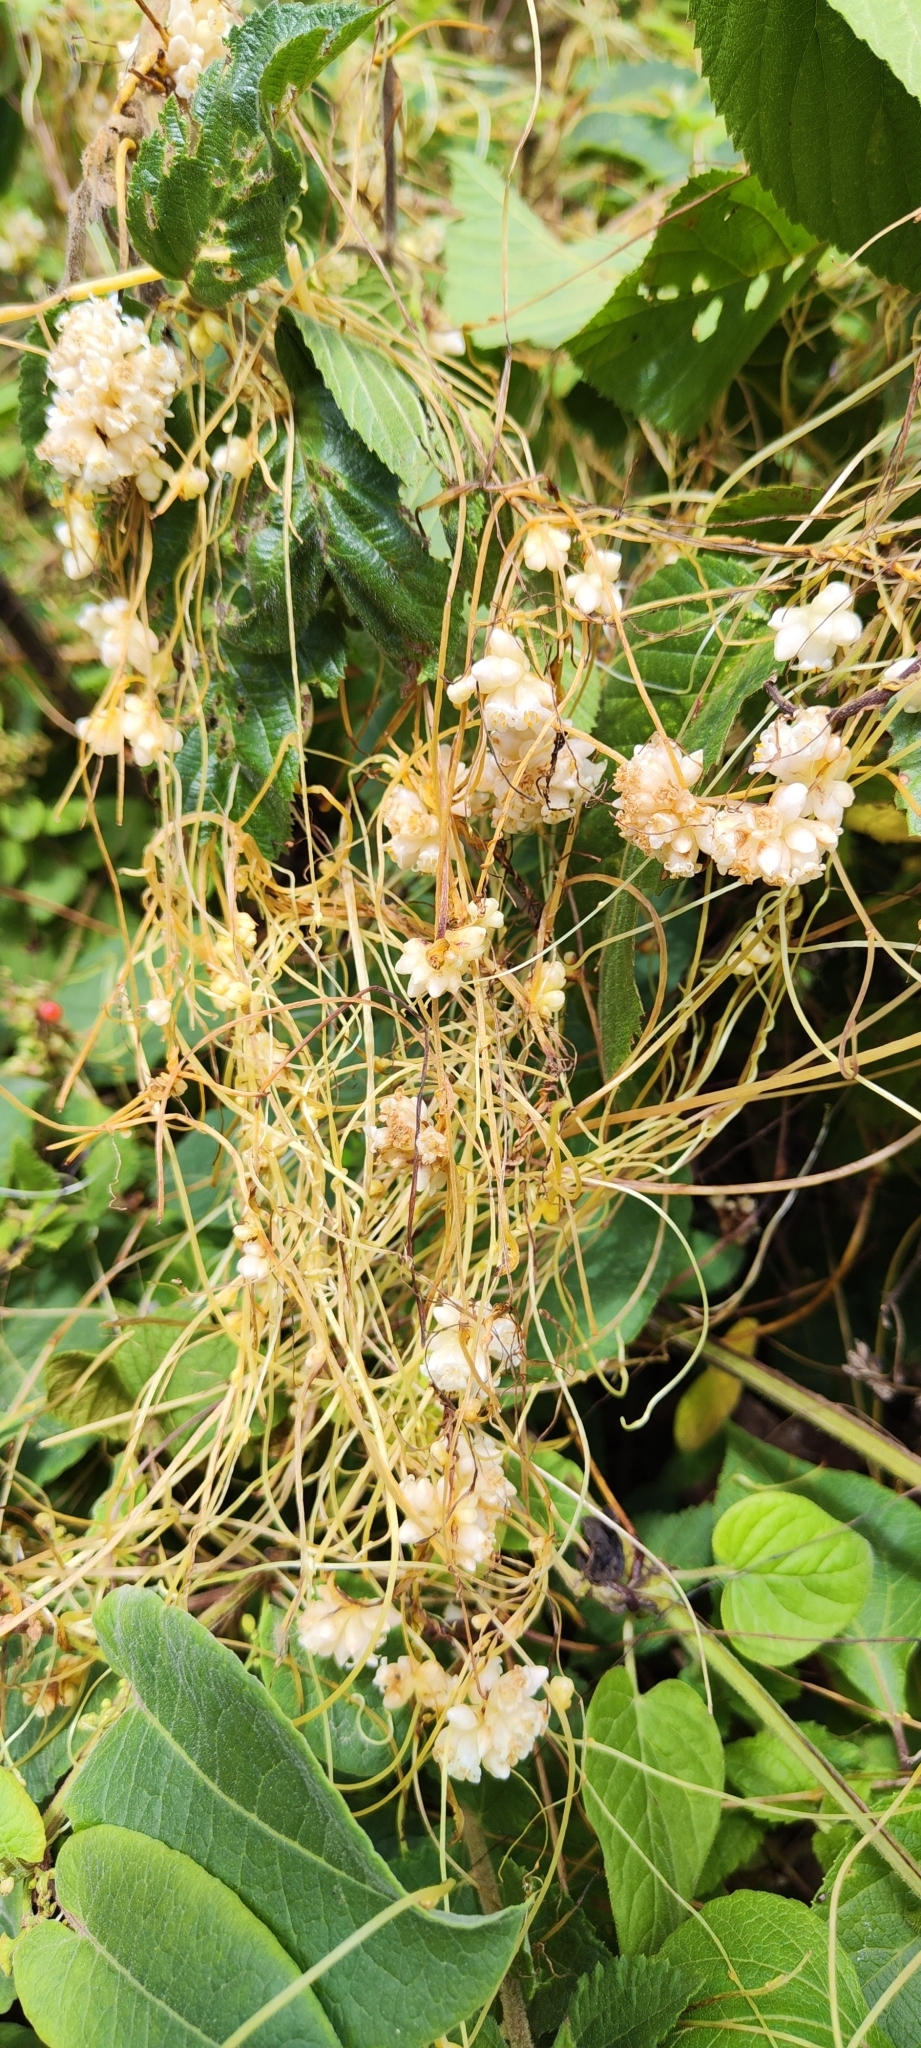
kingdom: Plantae
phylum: Tracheophyta
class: Magnoliopsida
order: Solanales
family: Convolvulaceae
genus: Cuscuta
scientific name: Cuscuta campestris
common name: Yellow dodder
